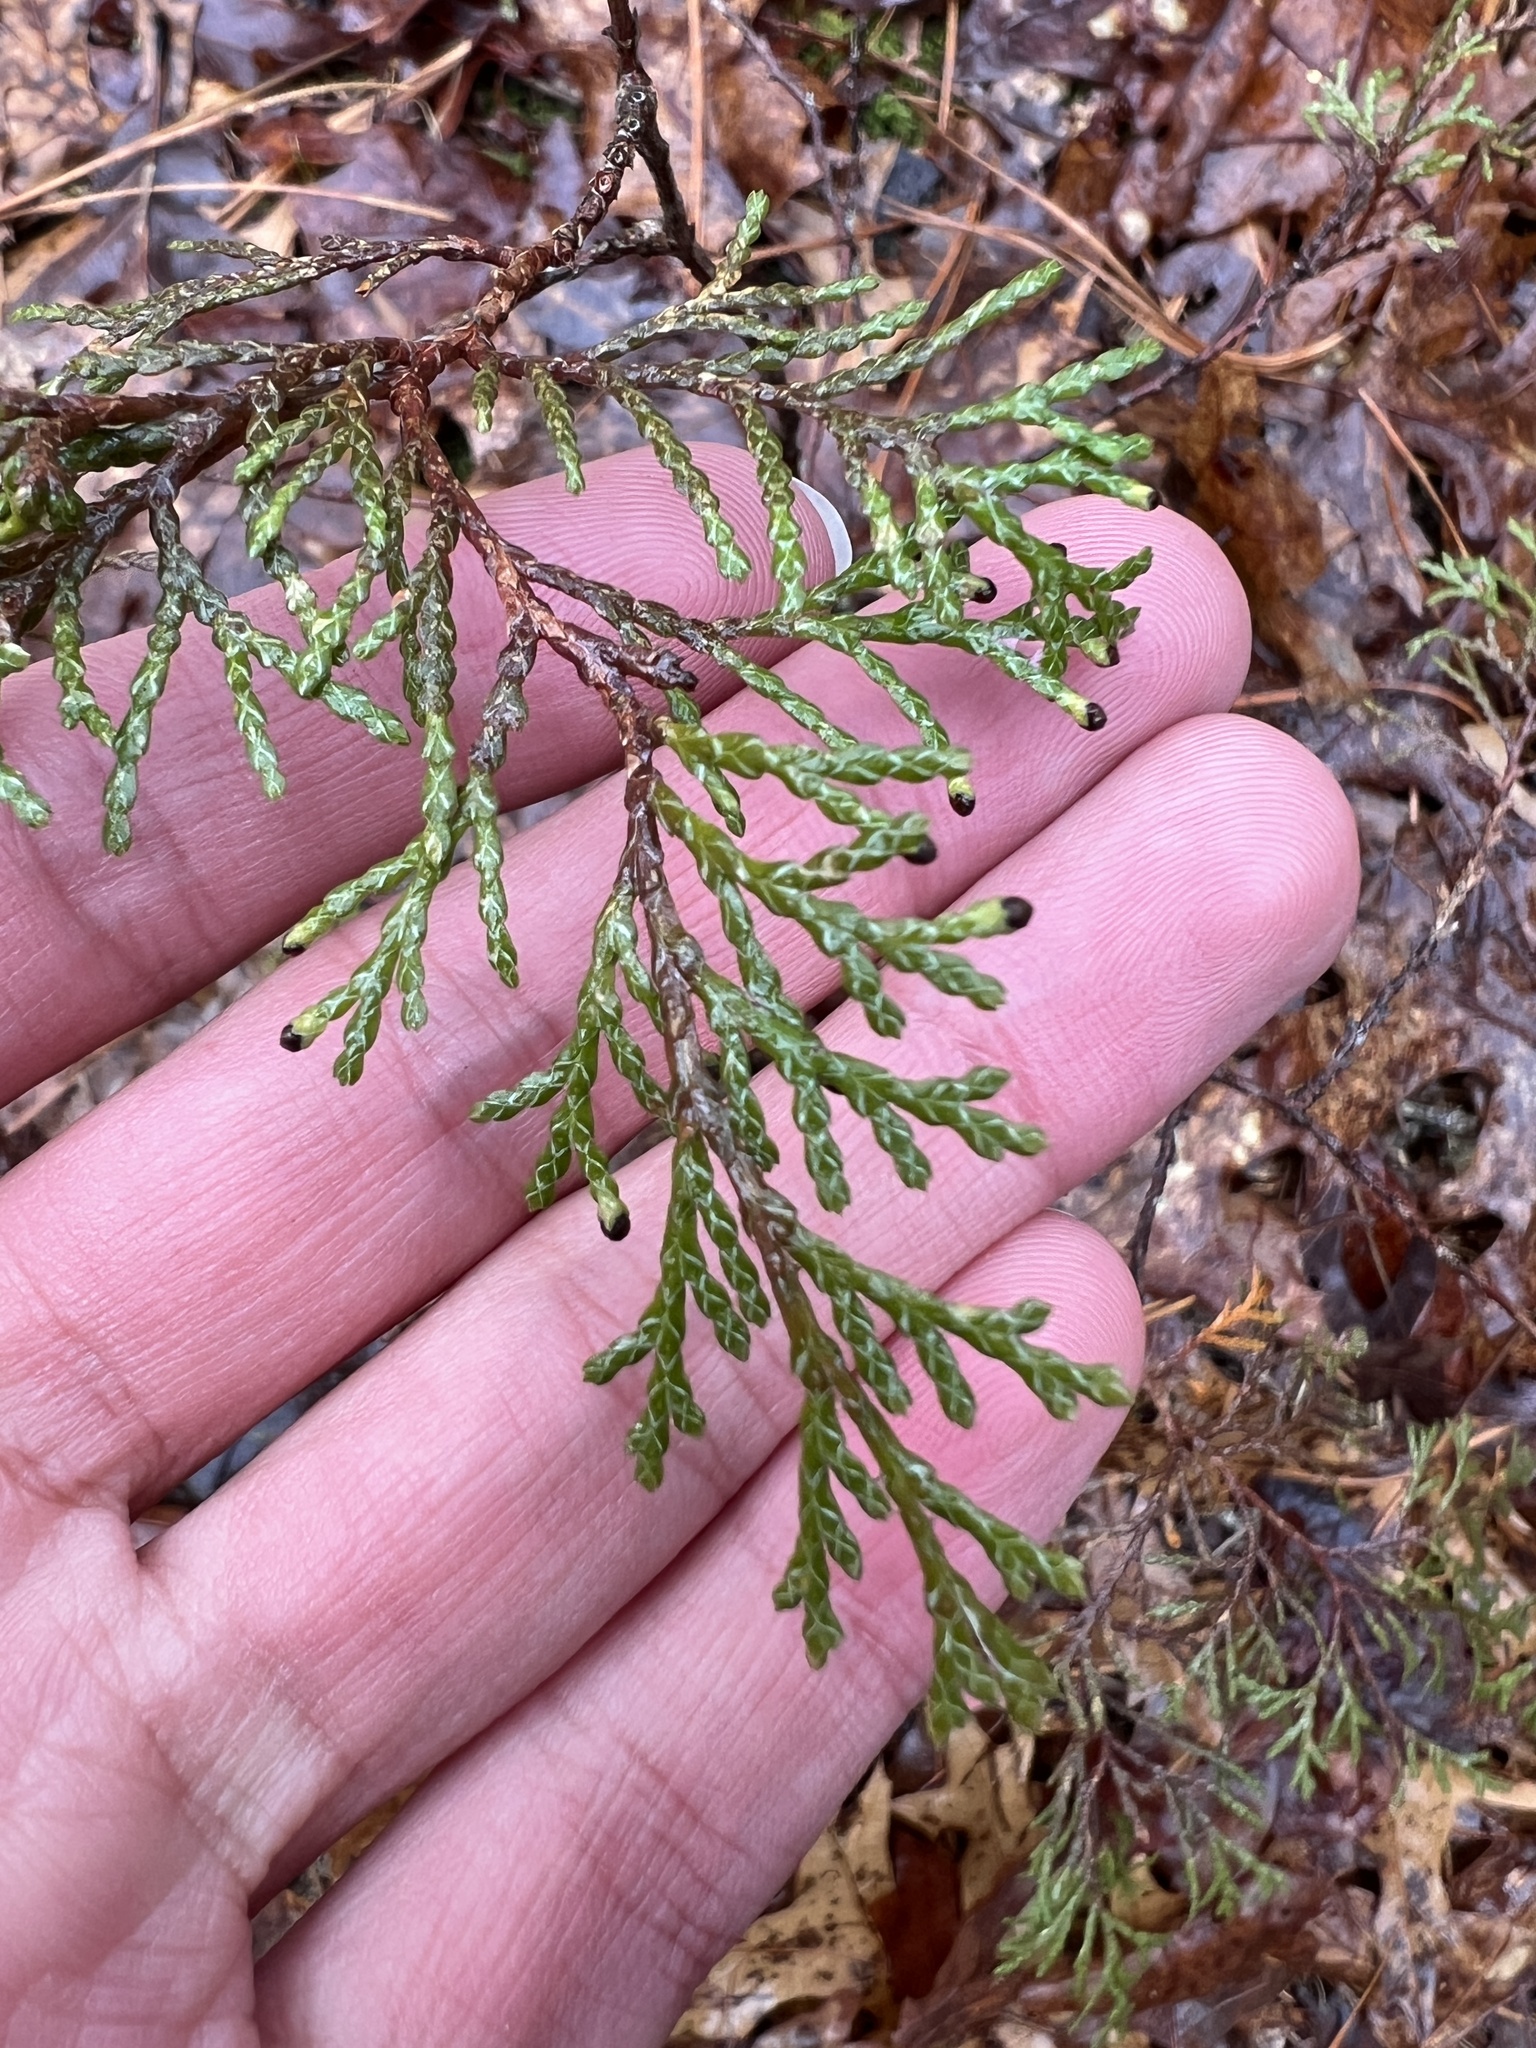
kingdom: Plantae
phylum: Tracheophyta
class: Pinopsida
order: Pinales
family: Cupressaceae
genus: Chamaecyparis
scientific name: Chamaecyparis thyoides
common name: Atlantic white cedar
